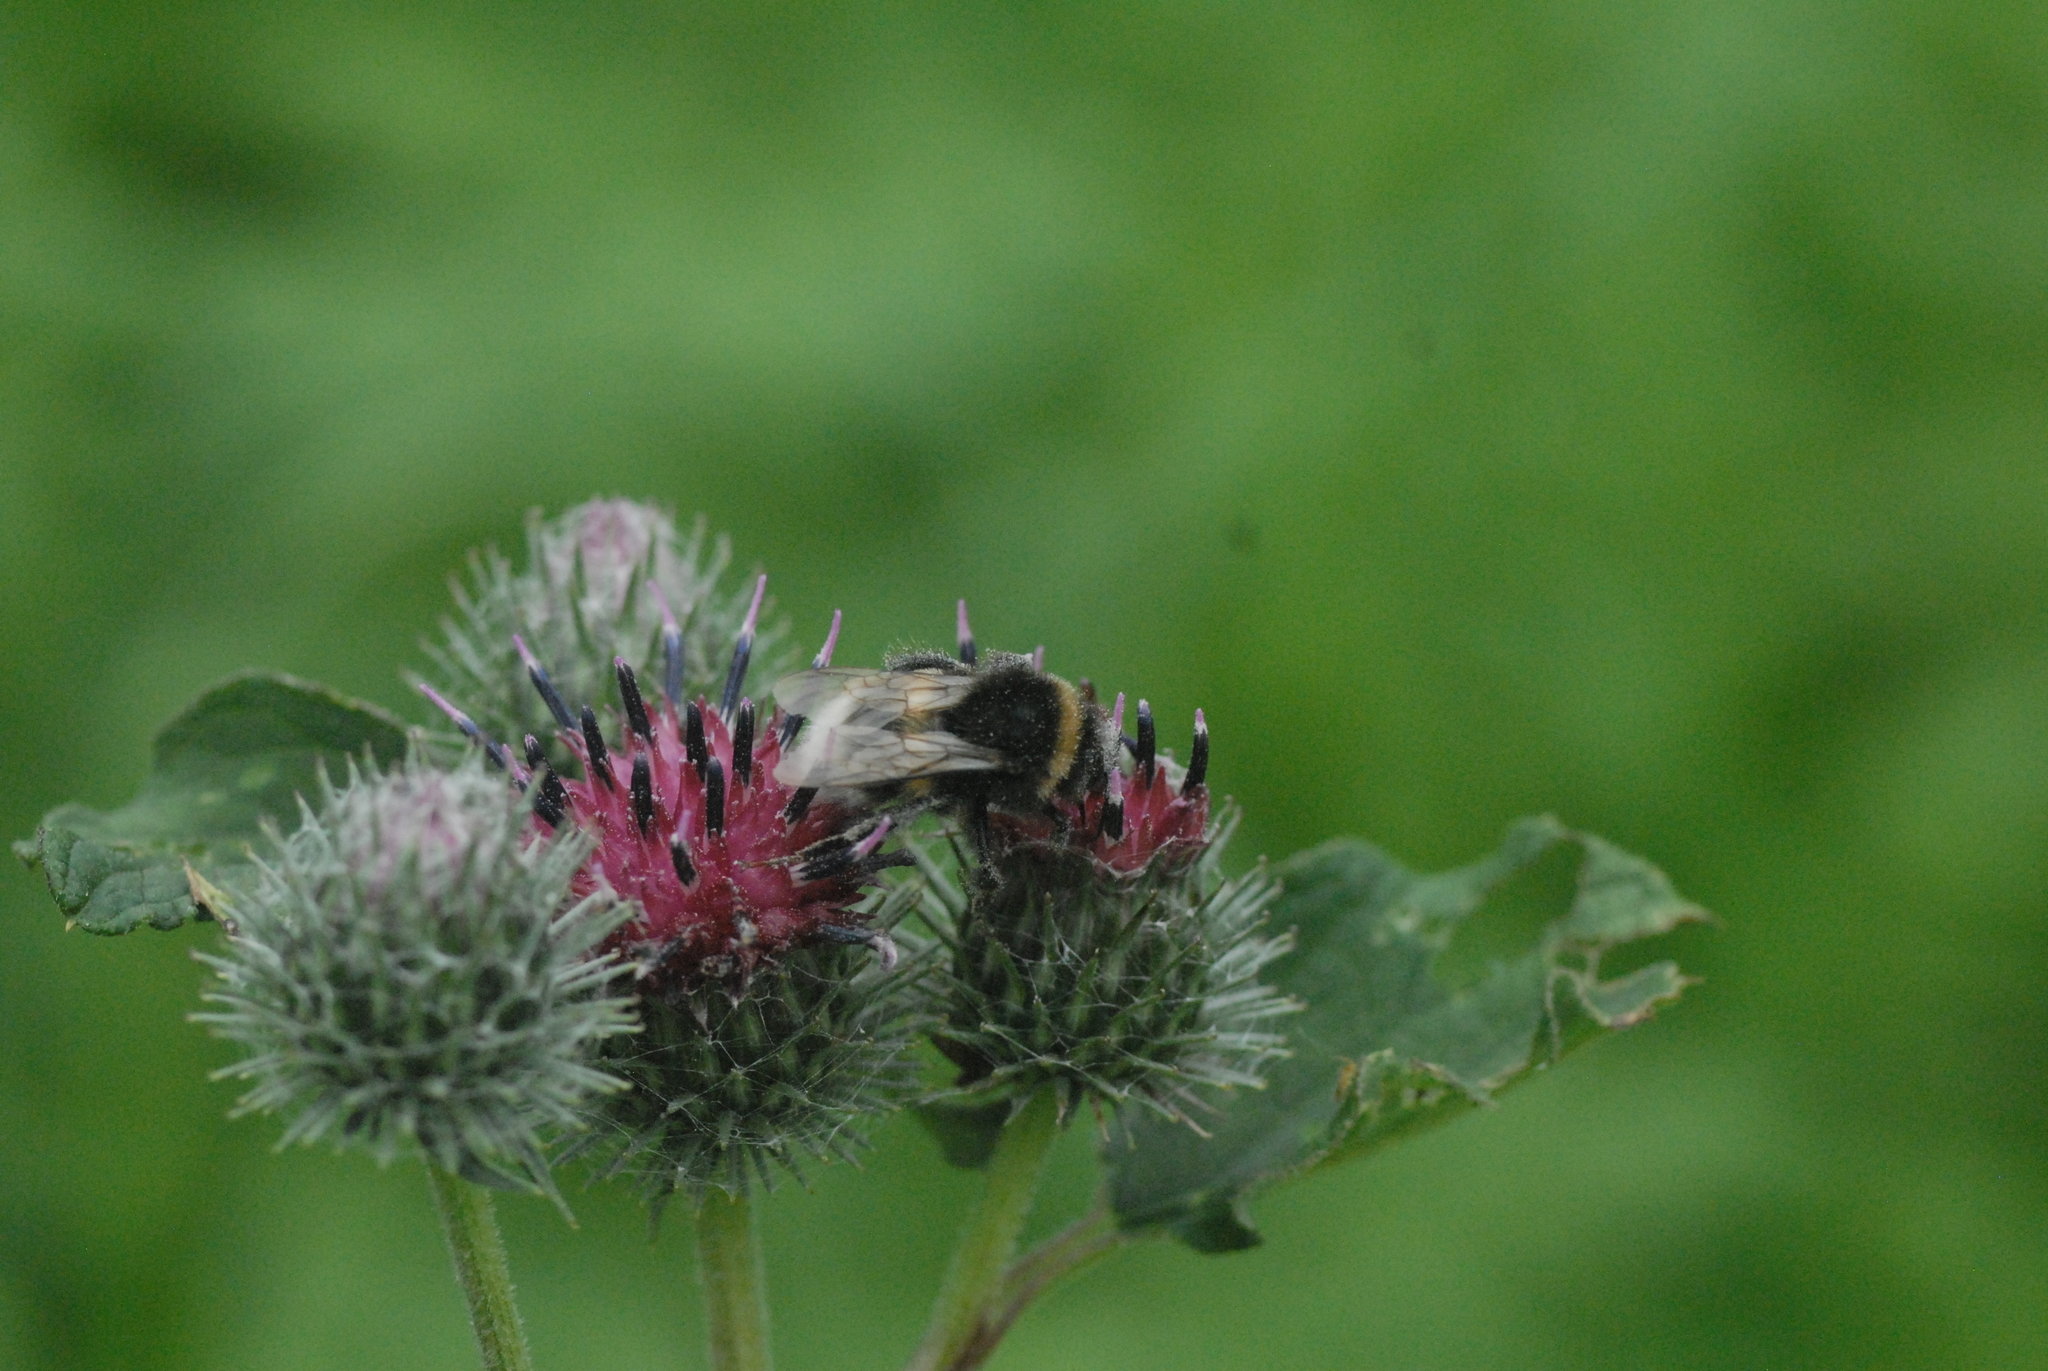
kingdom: Plantae
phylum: Tracheophyta
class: Magnoliopsida
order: Asterales
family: Asteraceae
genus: Arctium
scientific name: Arctium tomentosum
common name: Woolly burdock
